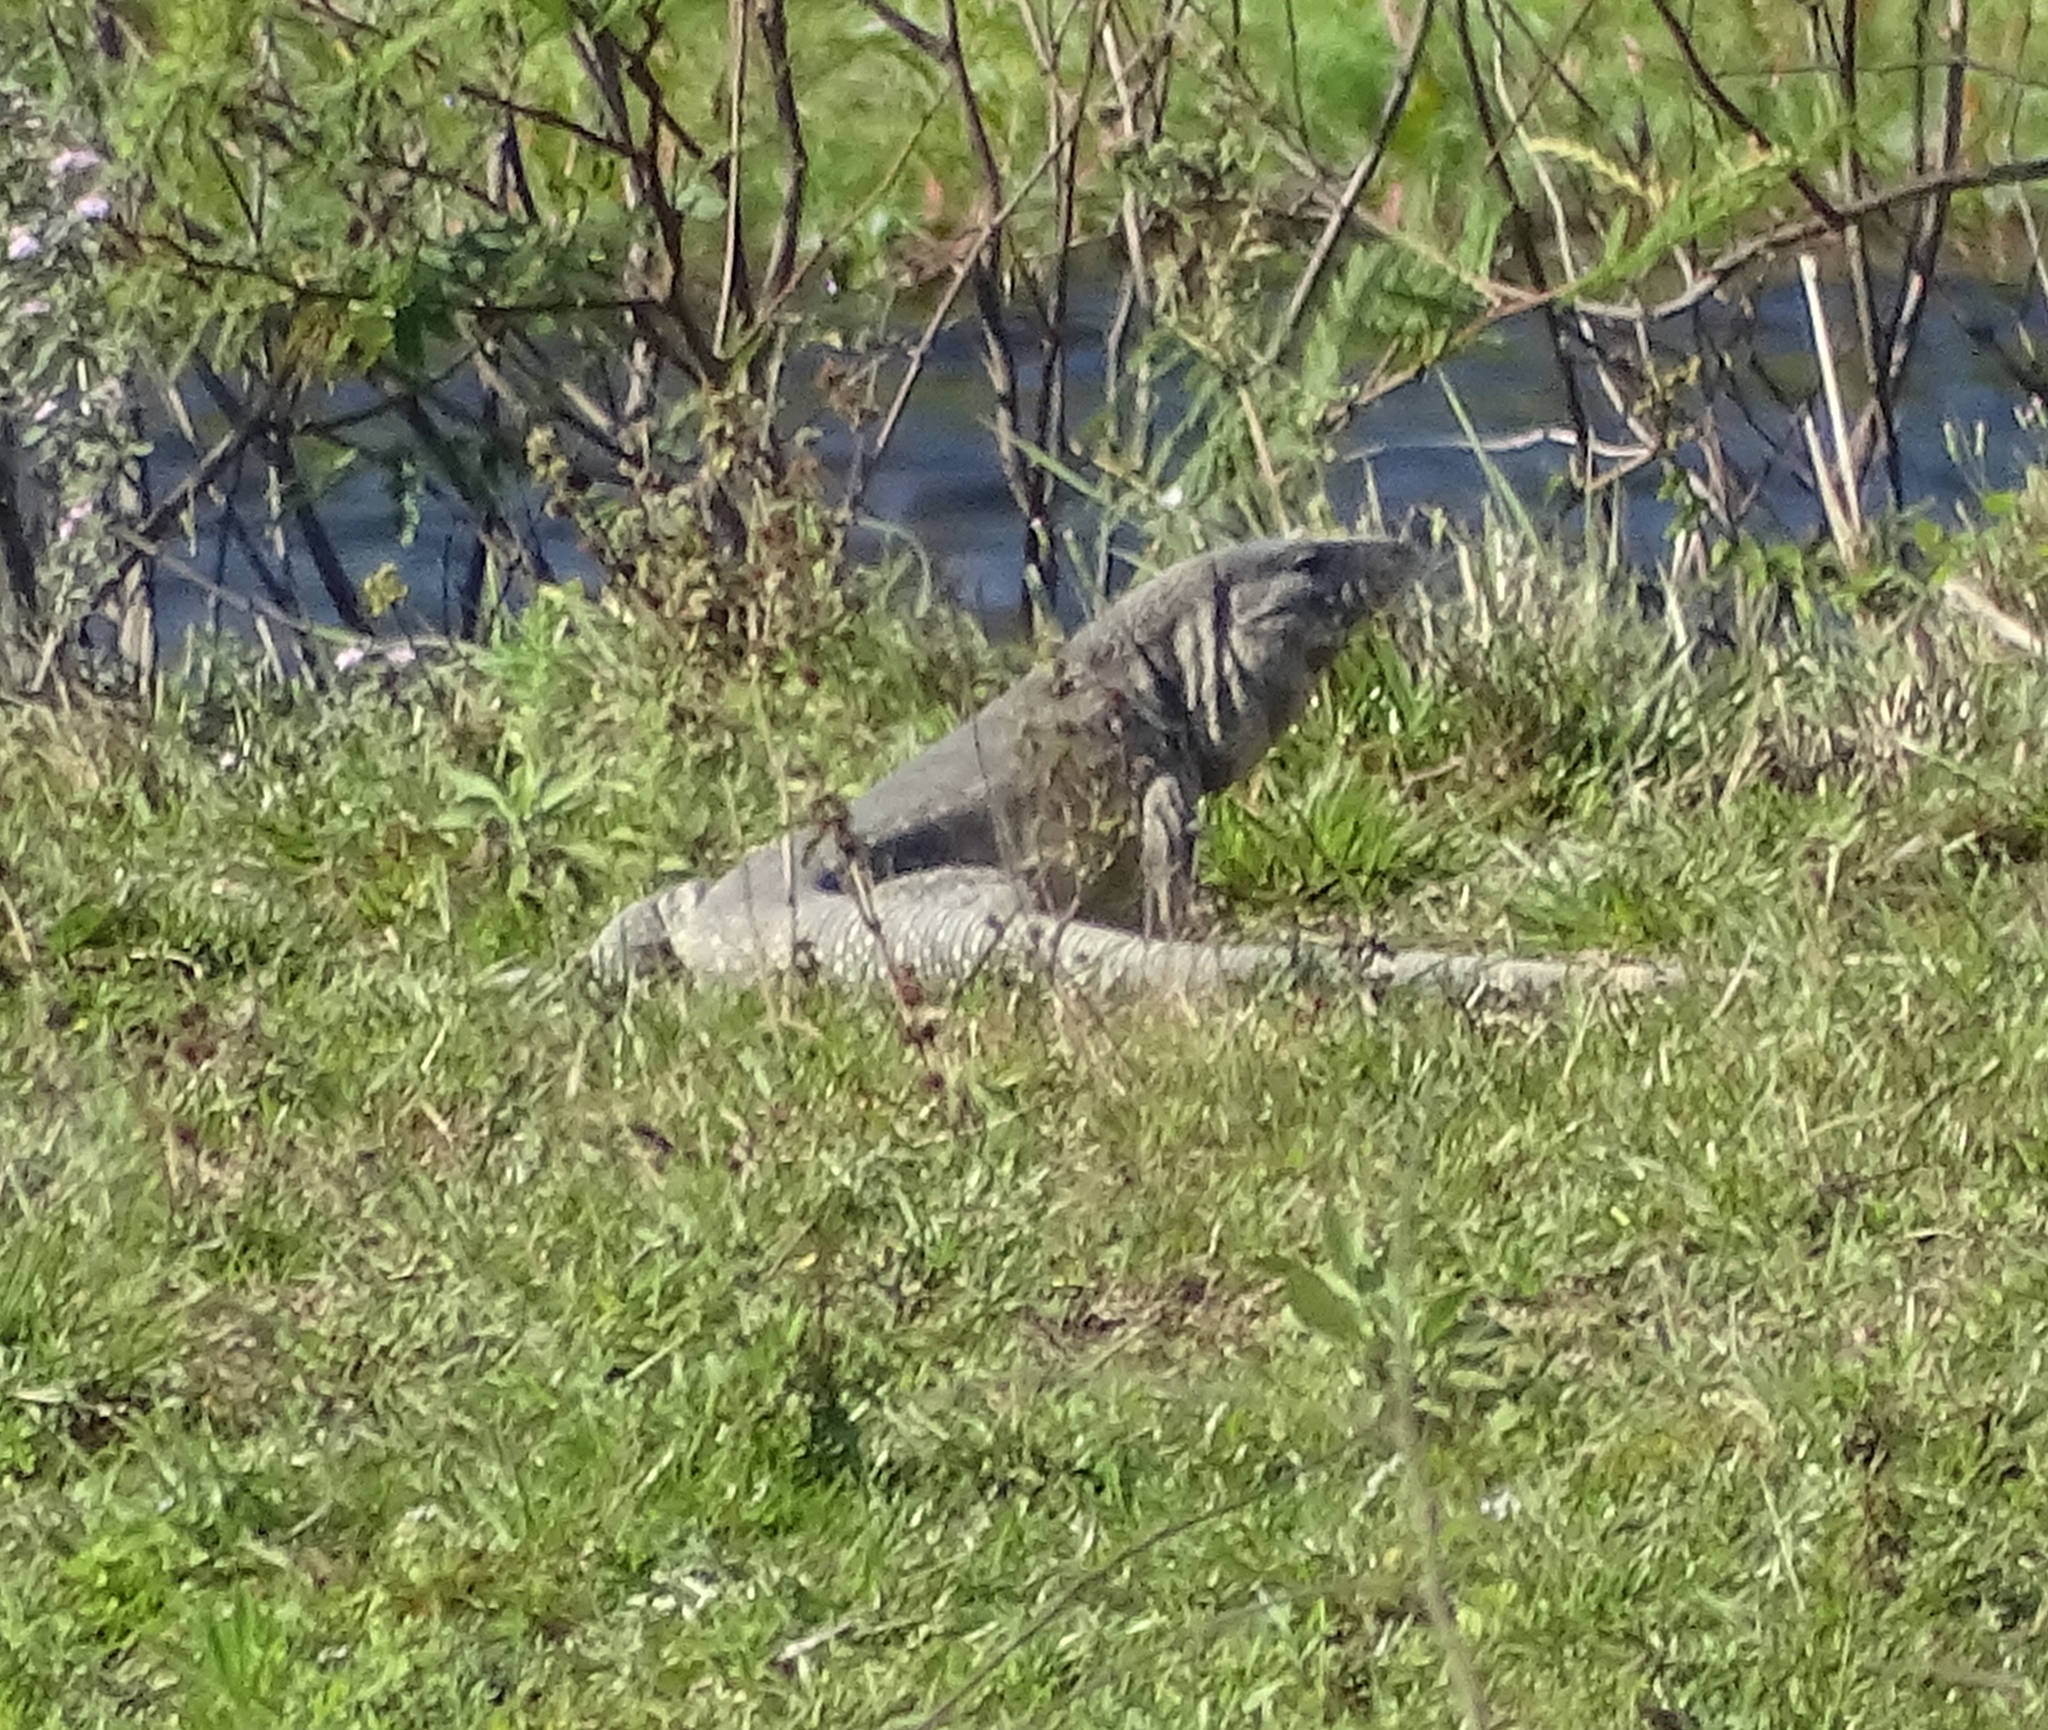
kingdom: Animalia
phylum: Chordata
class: Squamata
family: Teiidae
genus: Salvator
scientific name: Salvator merianae
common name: Argentine black and white tegu
